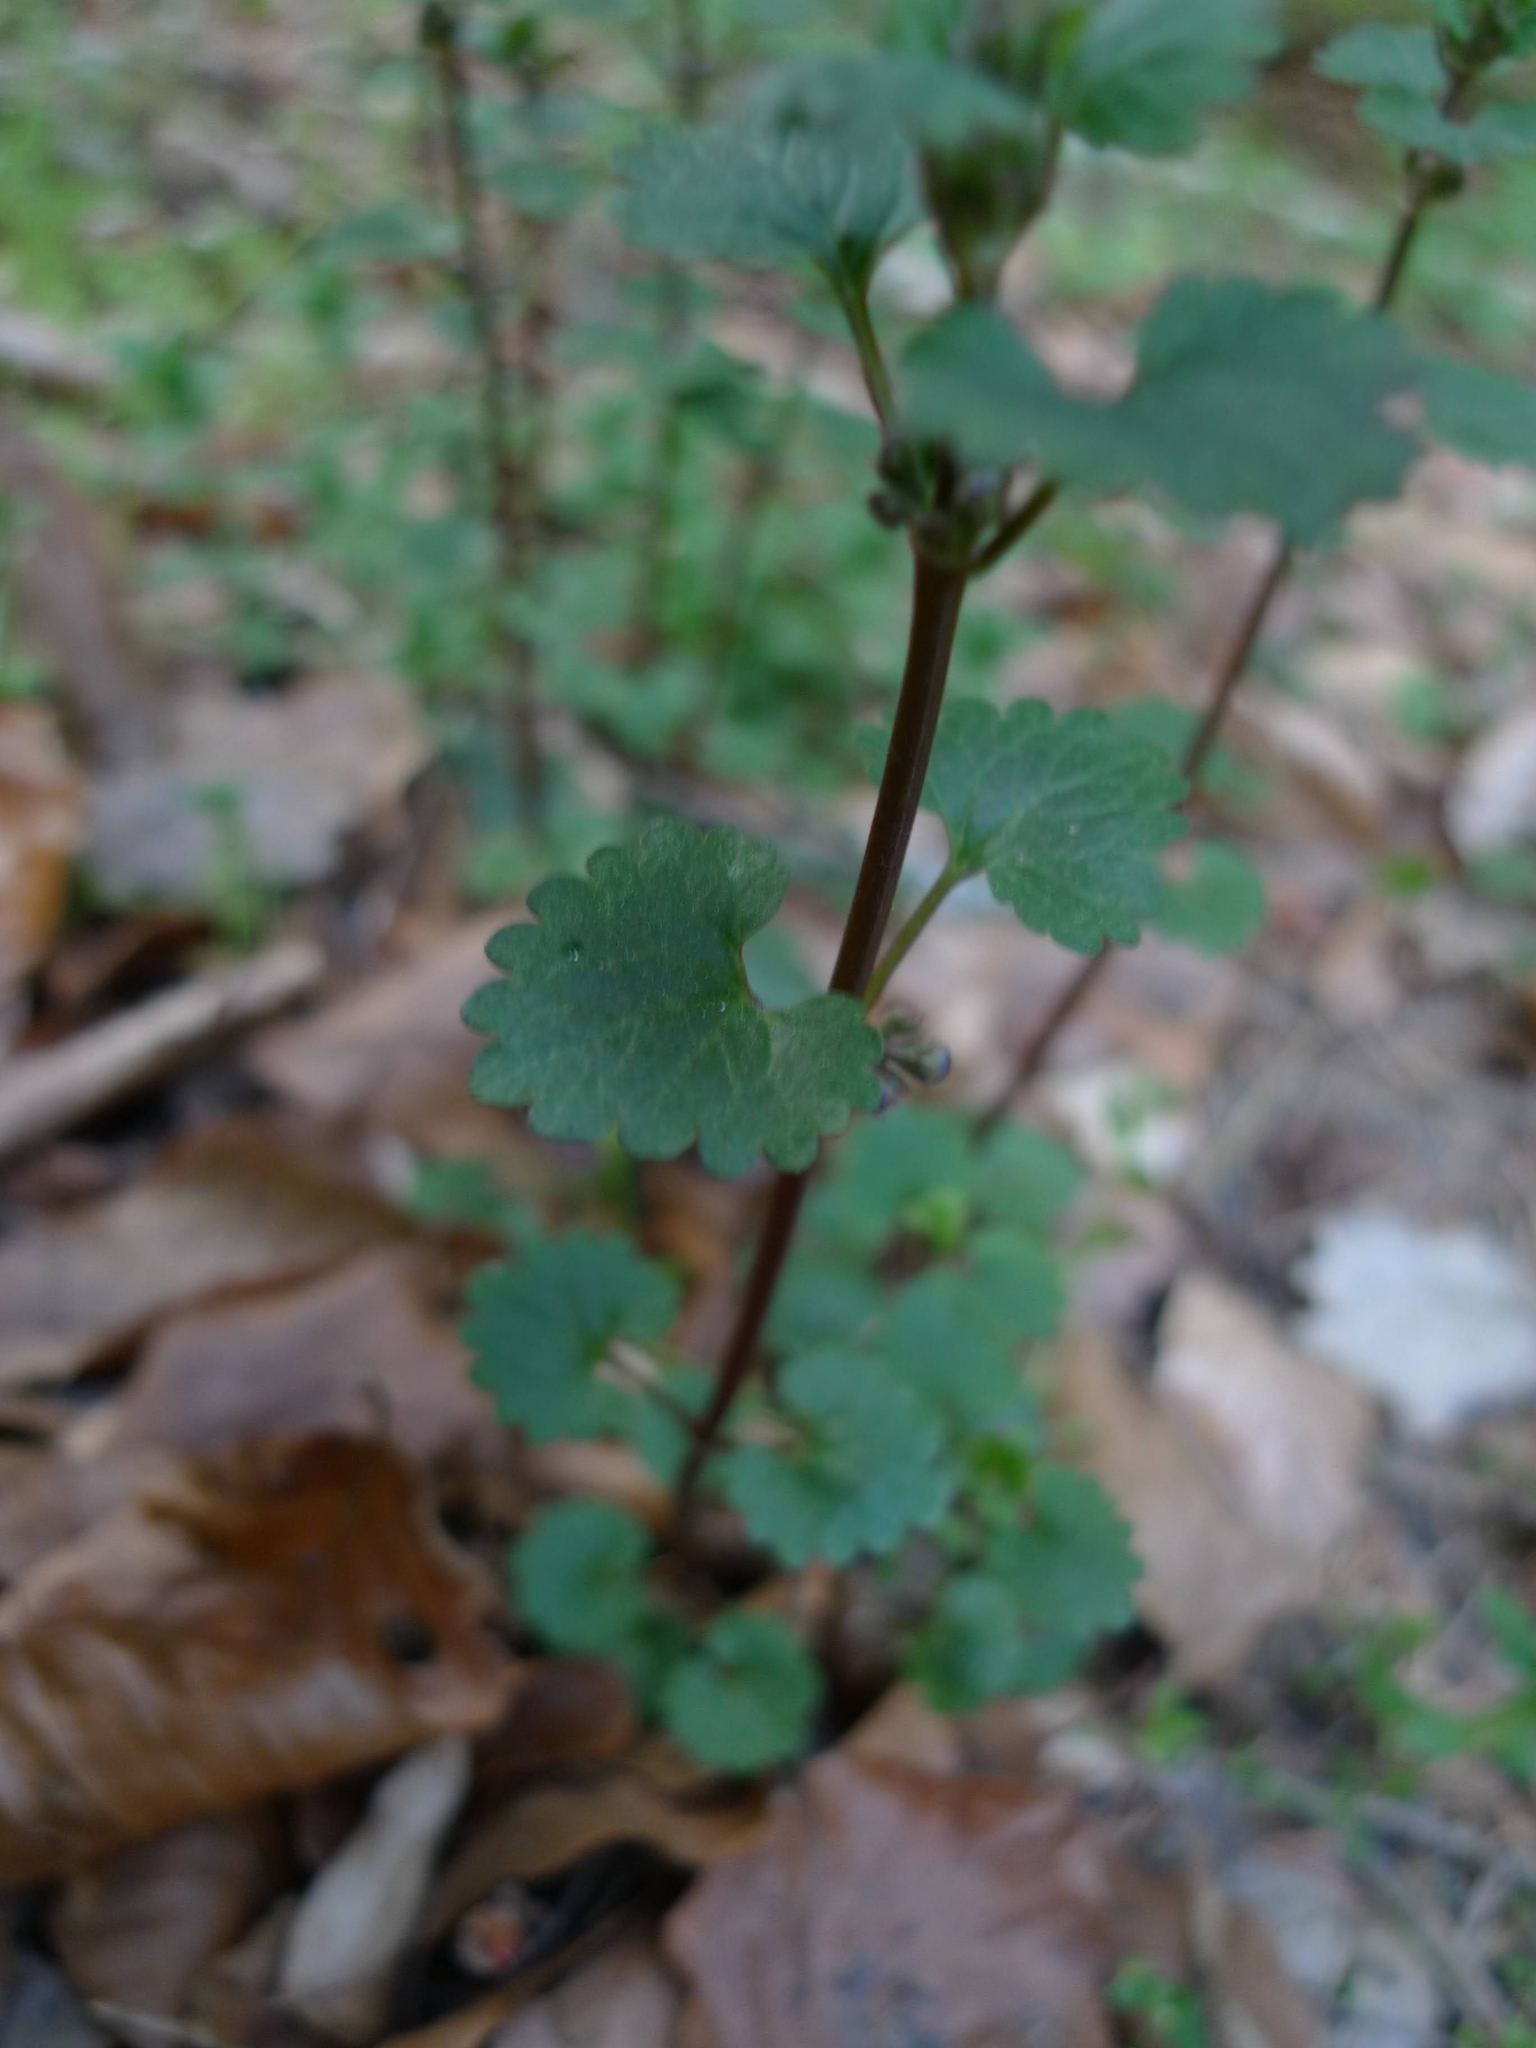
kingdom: Plantae
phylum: Tracheophyta
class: Magnoliopsida
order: Lamiales
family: Lamiaceae
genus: Glechoma
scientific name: Glechoma hederacea
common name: Ground ivy
